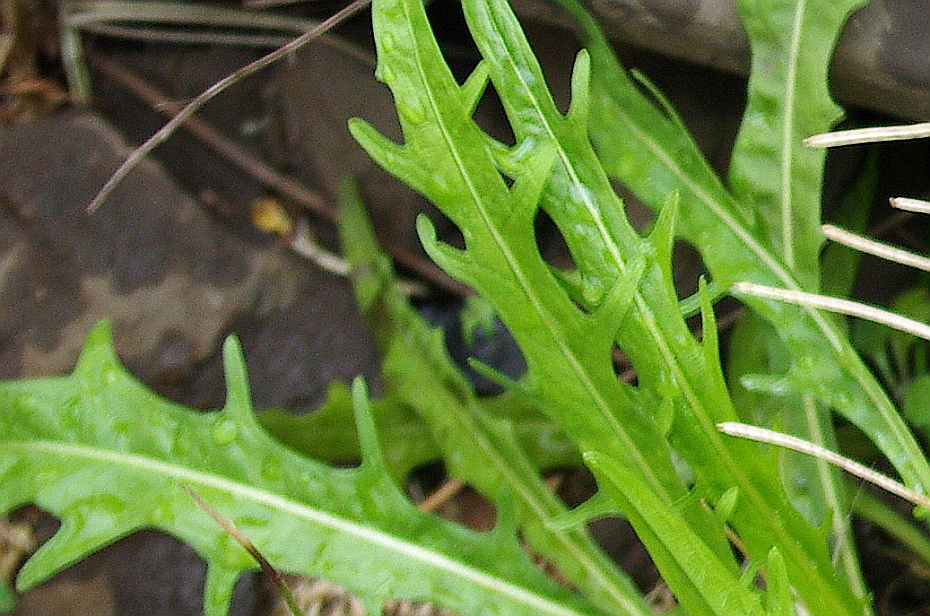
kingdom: Plantae
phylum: Tracheophyta
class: Magnoliopsida
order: Asterales
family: Asteraceae
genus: Scorzoneroides
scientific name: Scorzoneroides autumnalis
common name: Autumn hawkbit
